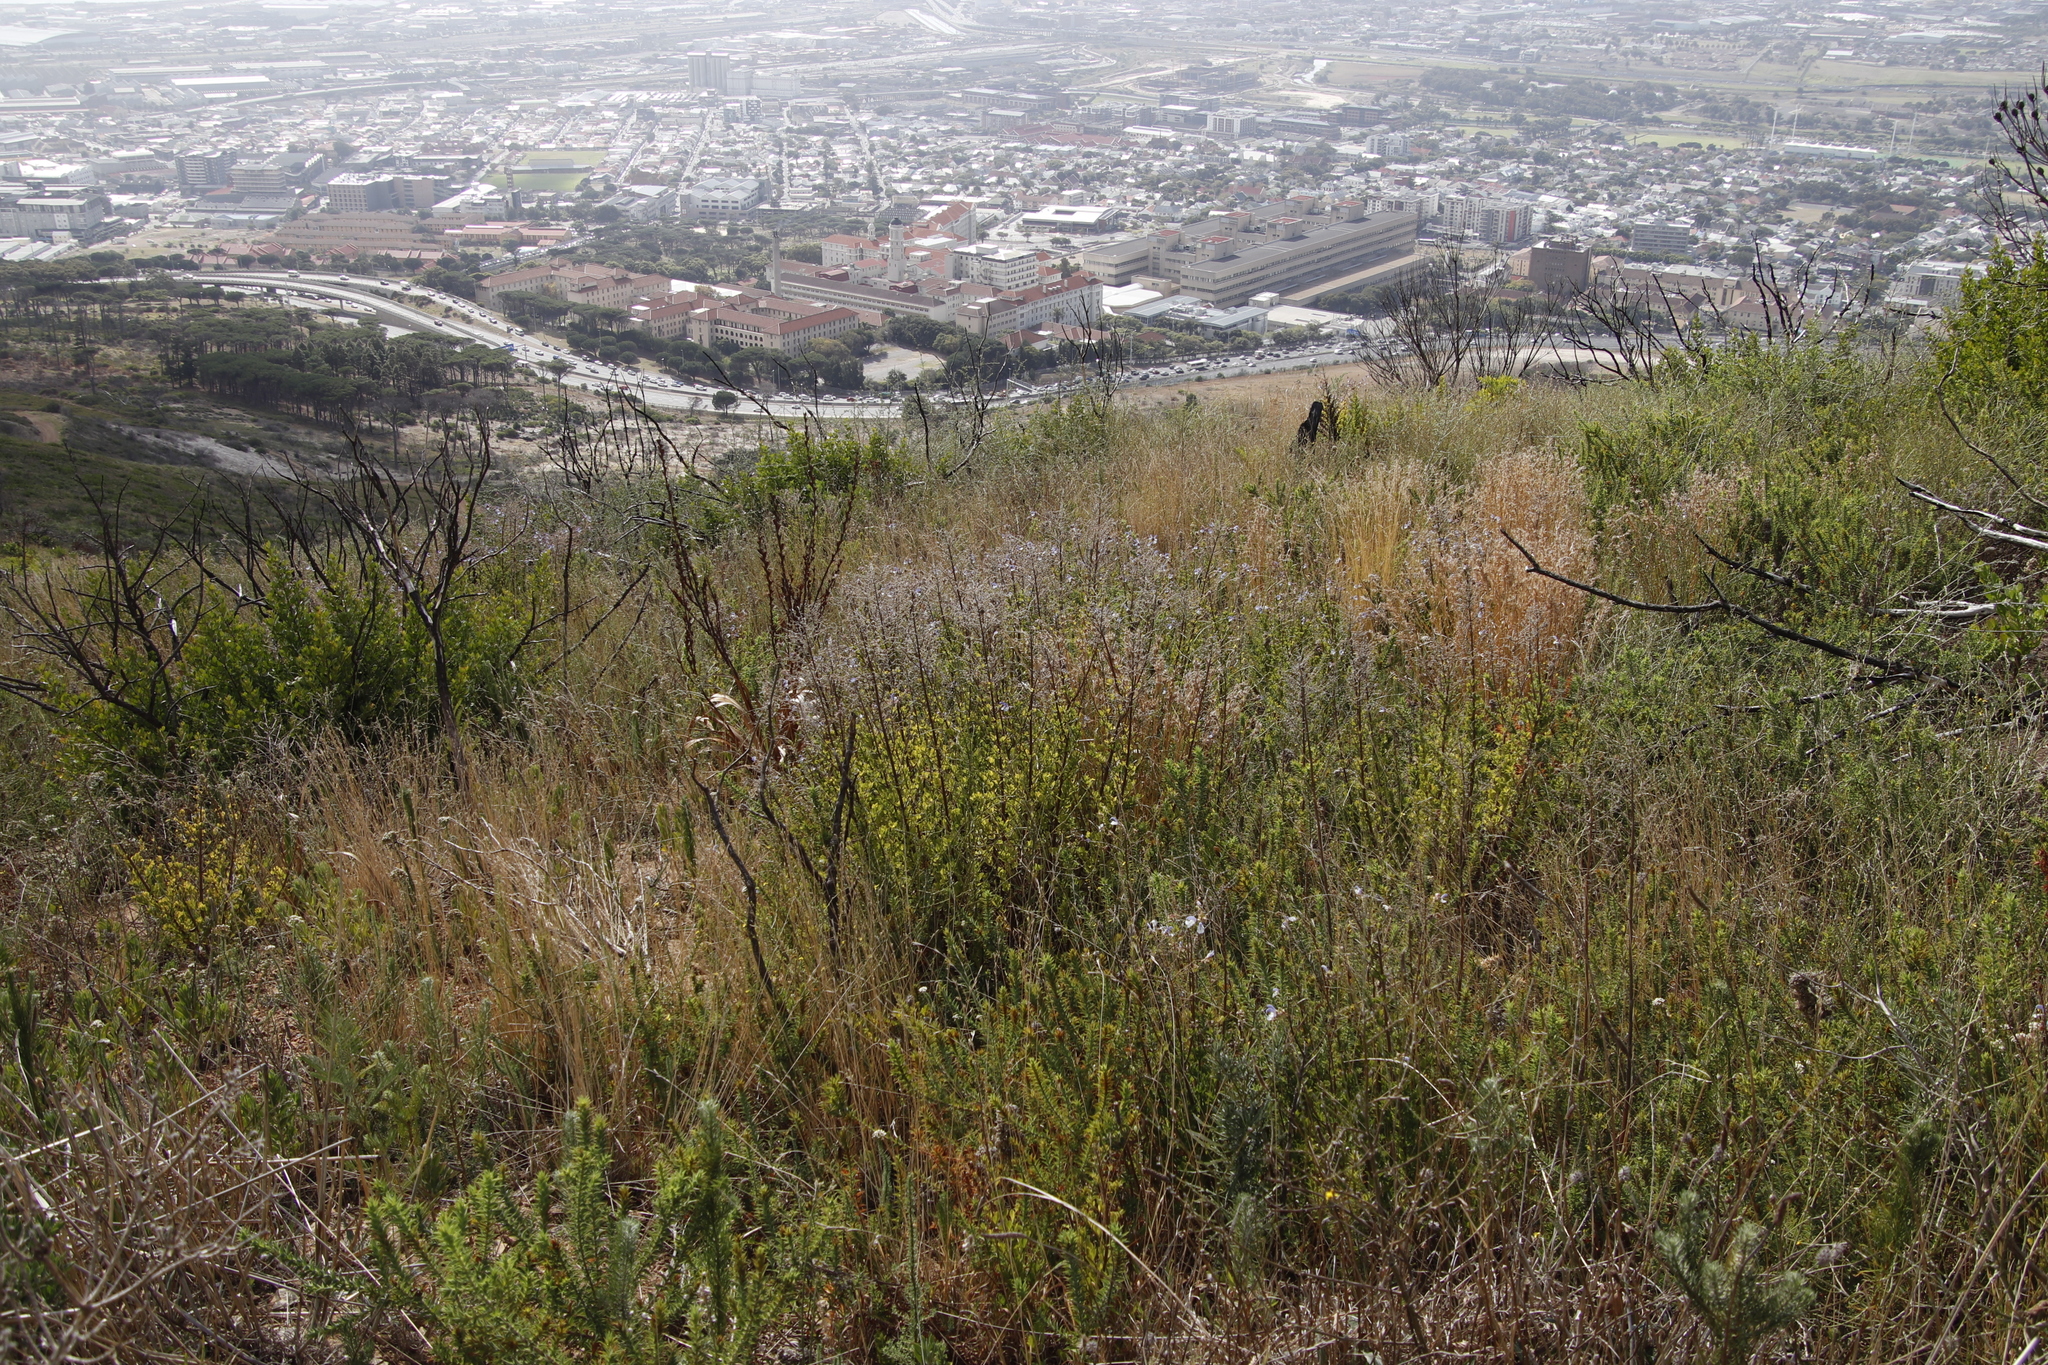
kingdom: Plantae
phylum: Tracheophyta
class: Magnoliopsida
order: Lamiales
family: Lamiaceae
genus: Salvia
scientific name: Salvia chamelaeagnea
